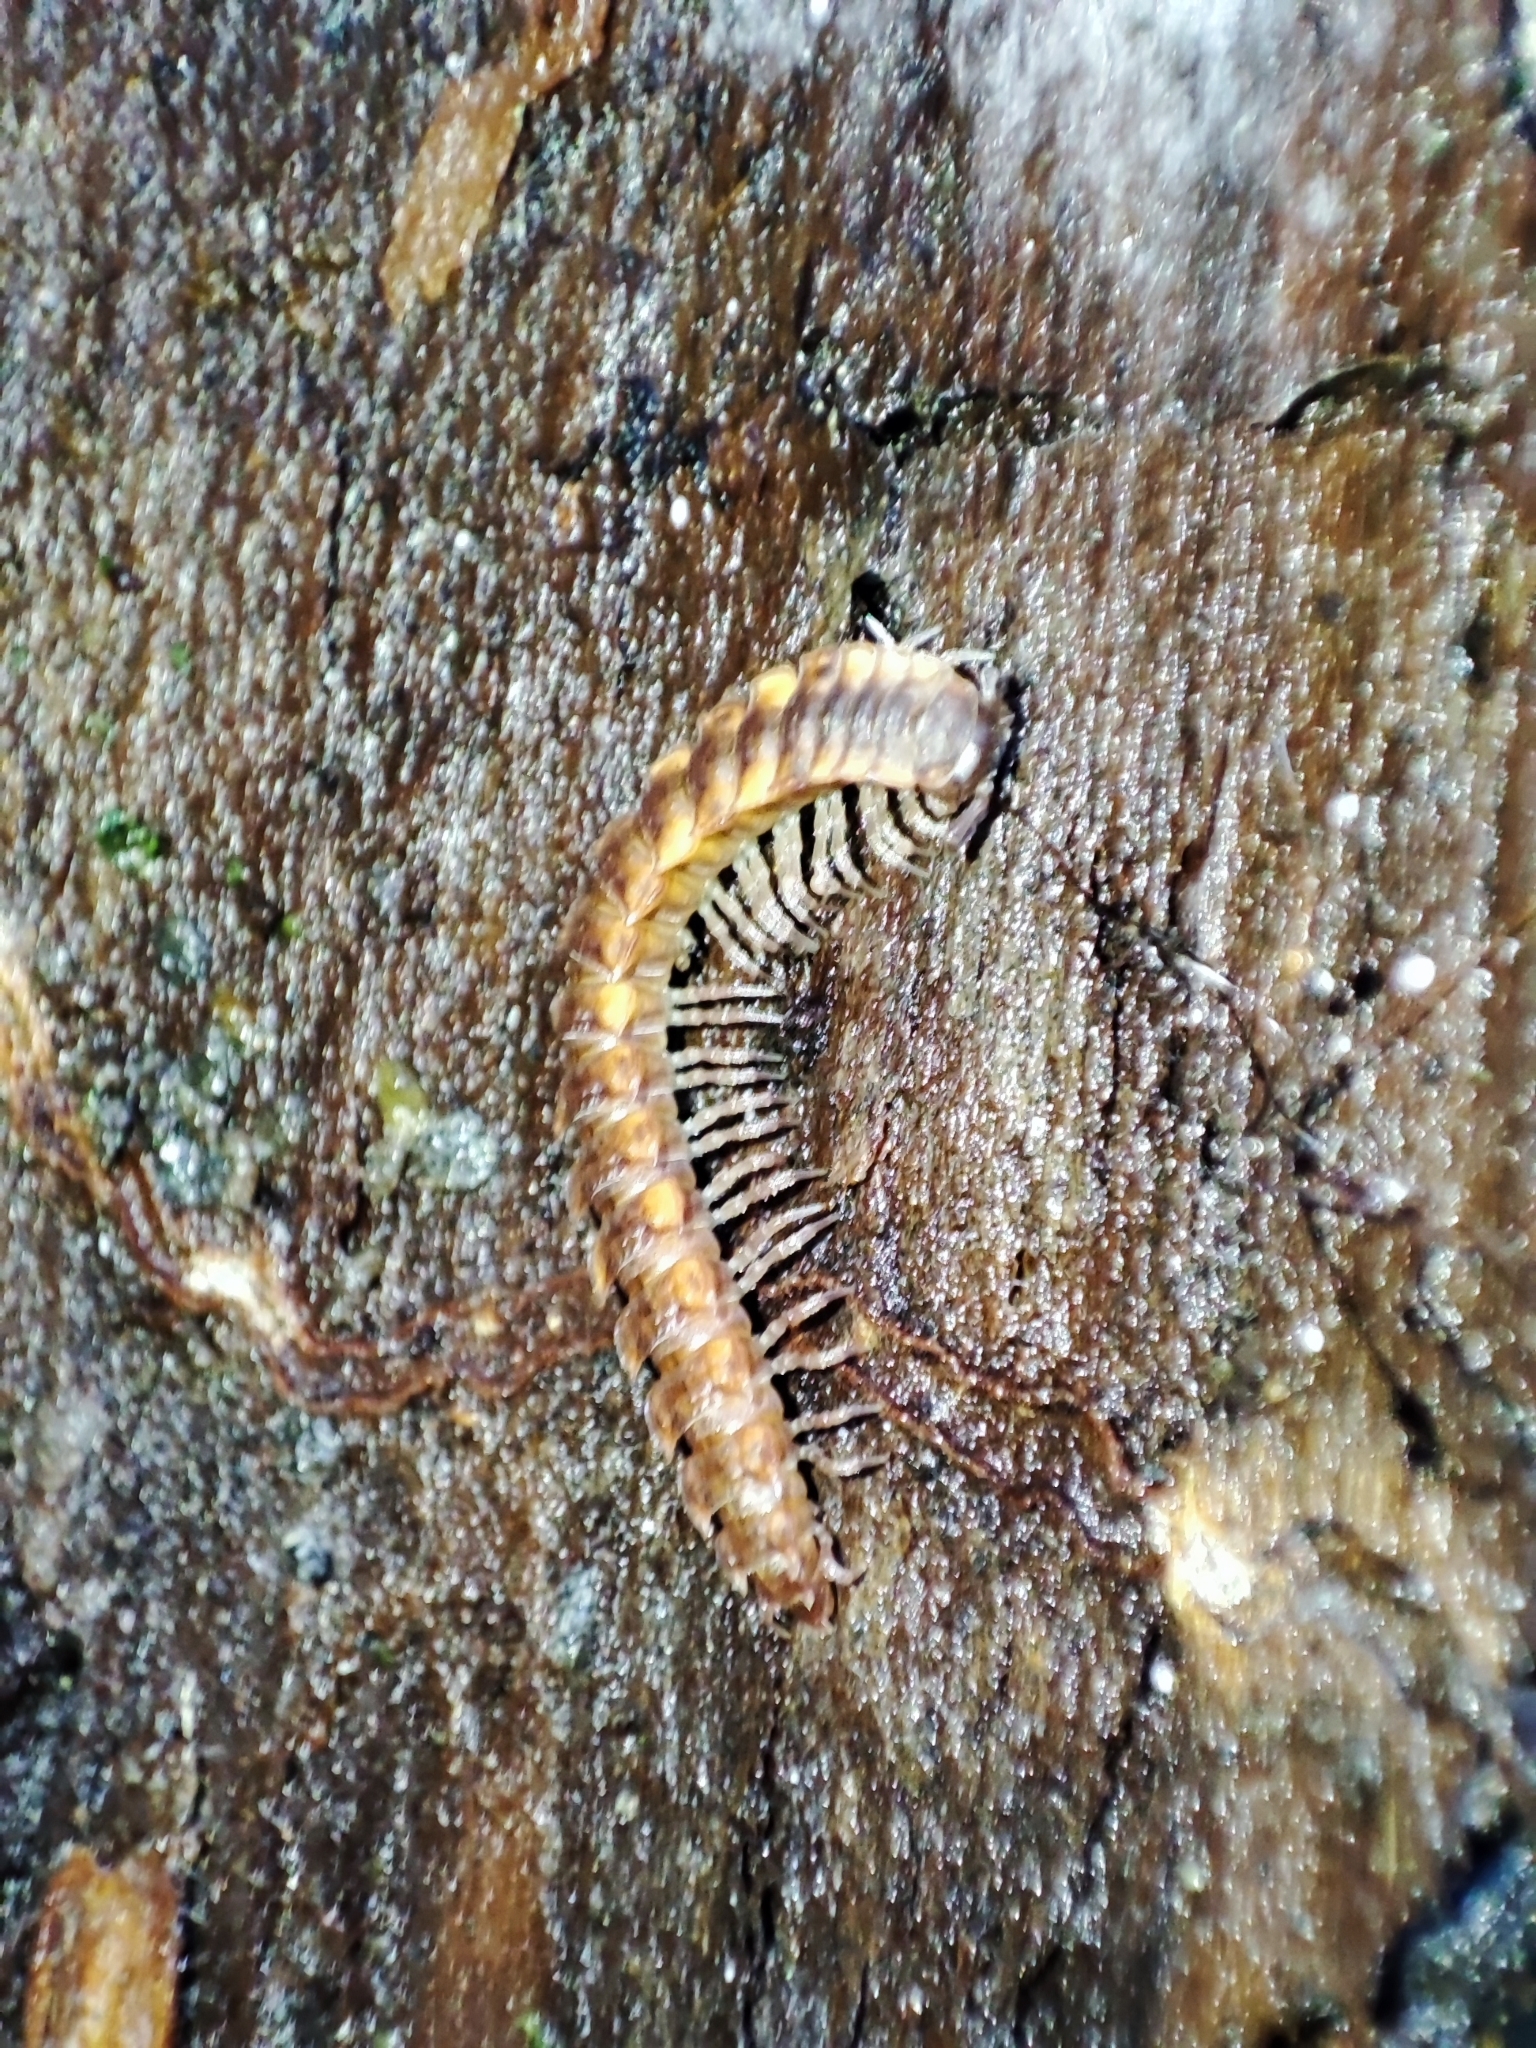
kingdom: Animalia
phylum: Arthropoda
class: Diplopoda
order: Polydesmida
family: Polydesmidae
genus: Polydesmus
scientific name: Polydesmus complanatus
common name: Flat-backed millipede
